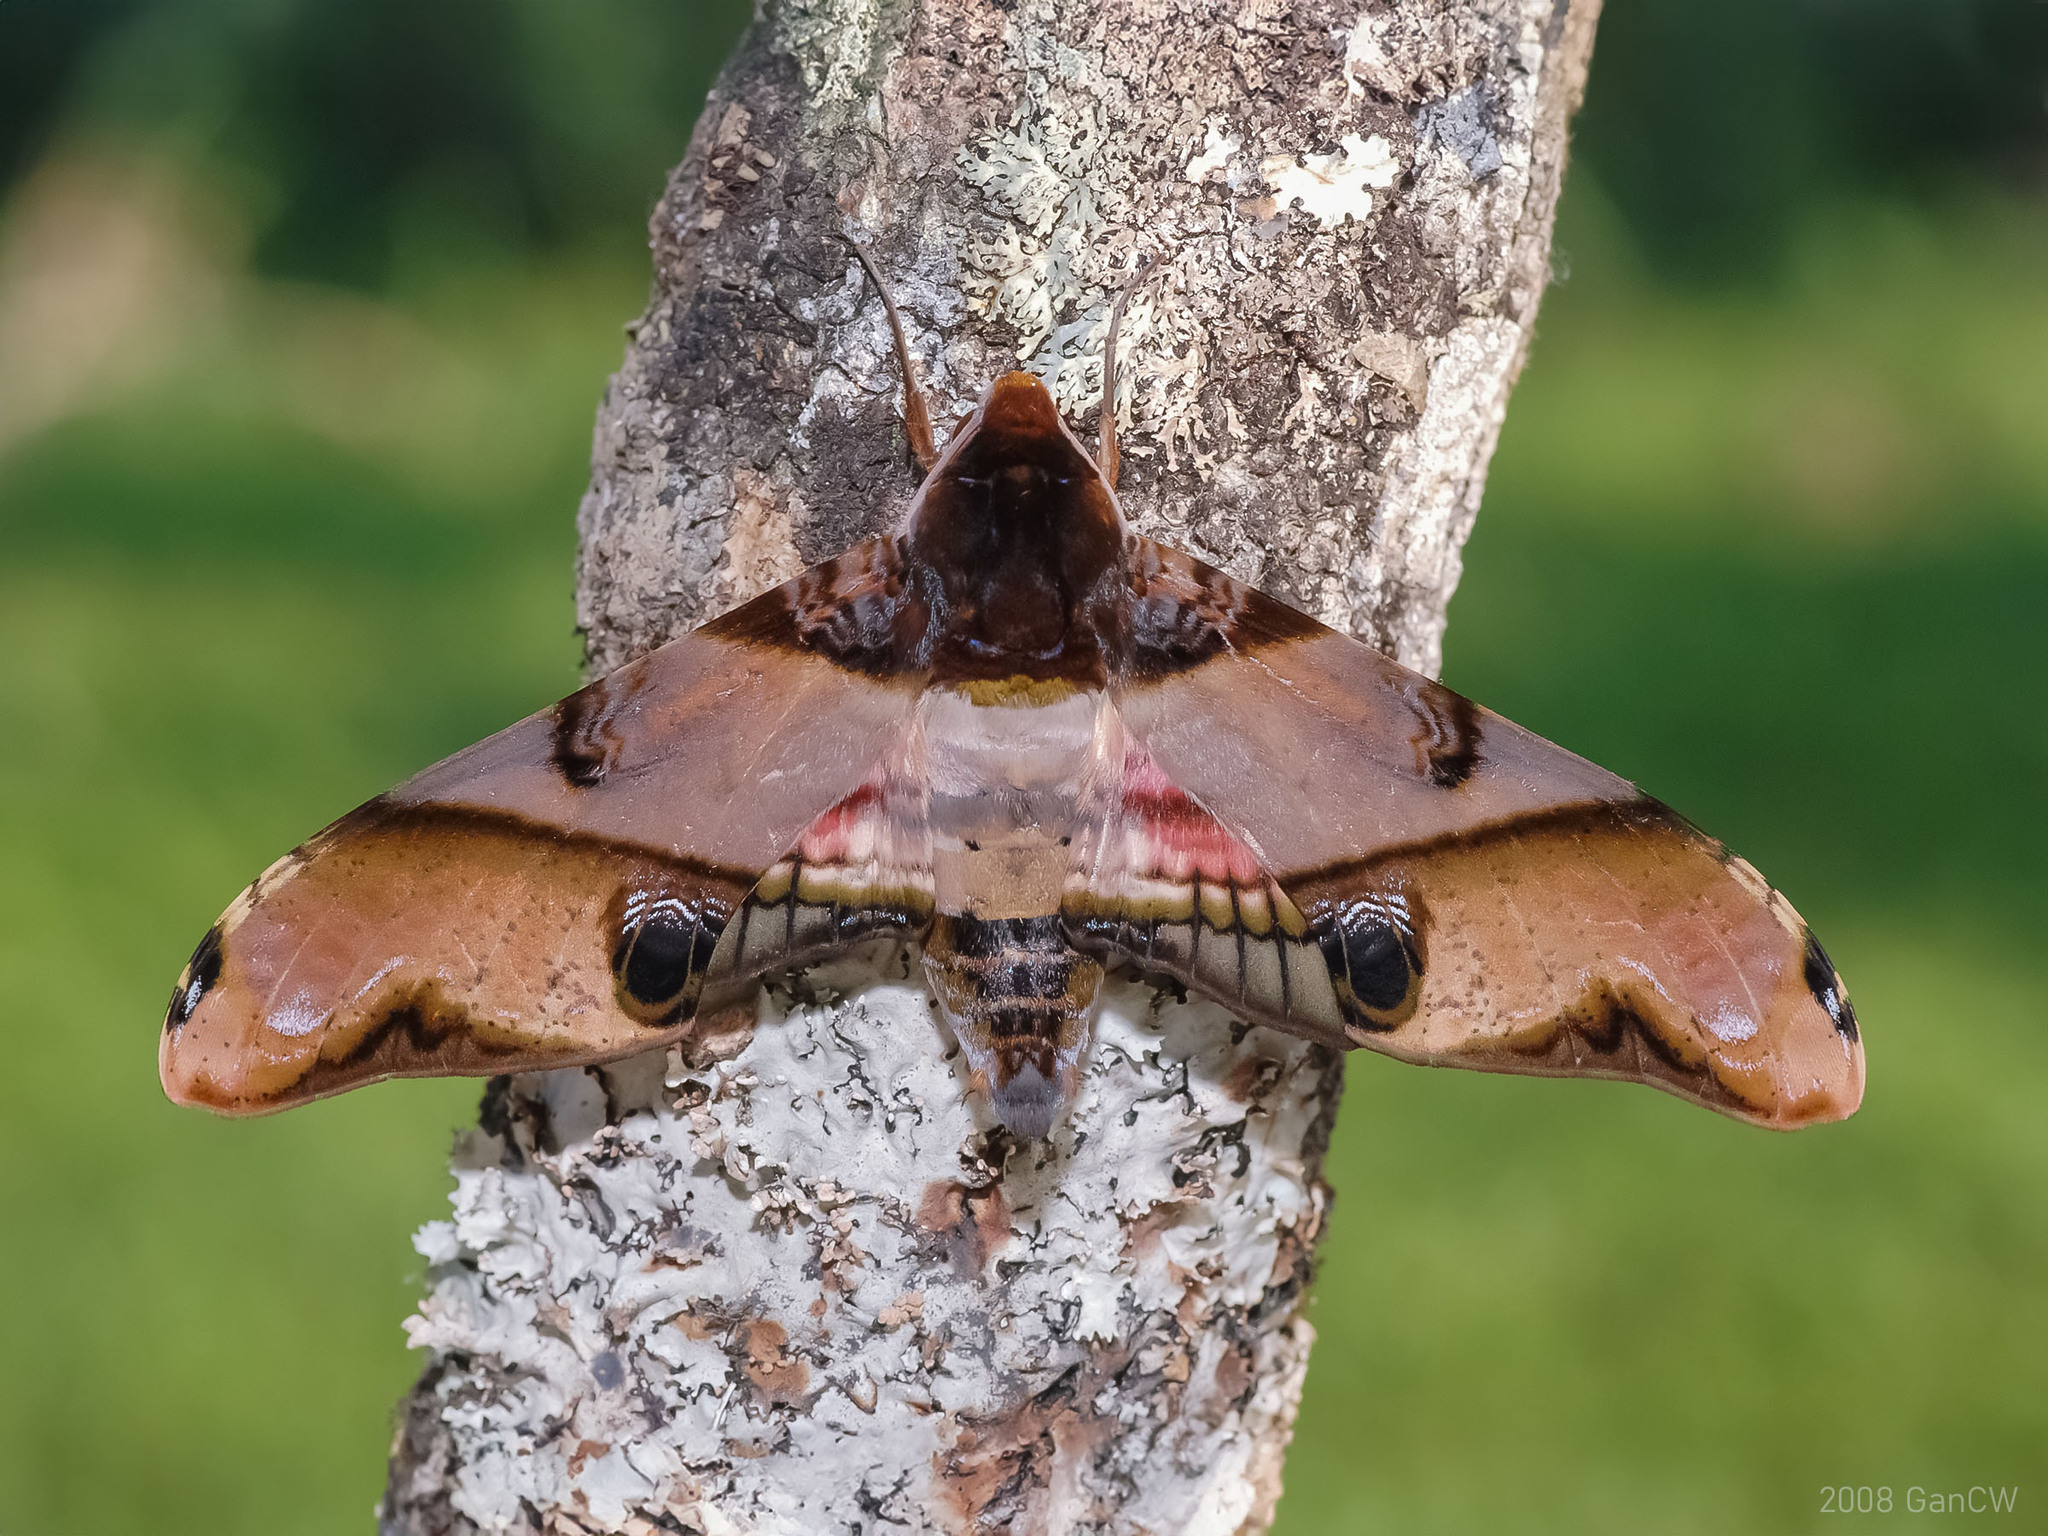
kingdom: Animalia
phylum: Arthropoda
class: Insecta
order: Lepidoptera
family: Sphingidae
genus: Amplypterus
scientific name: Amplypterus panopus
